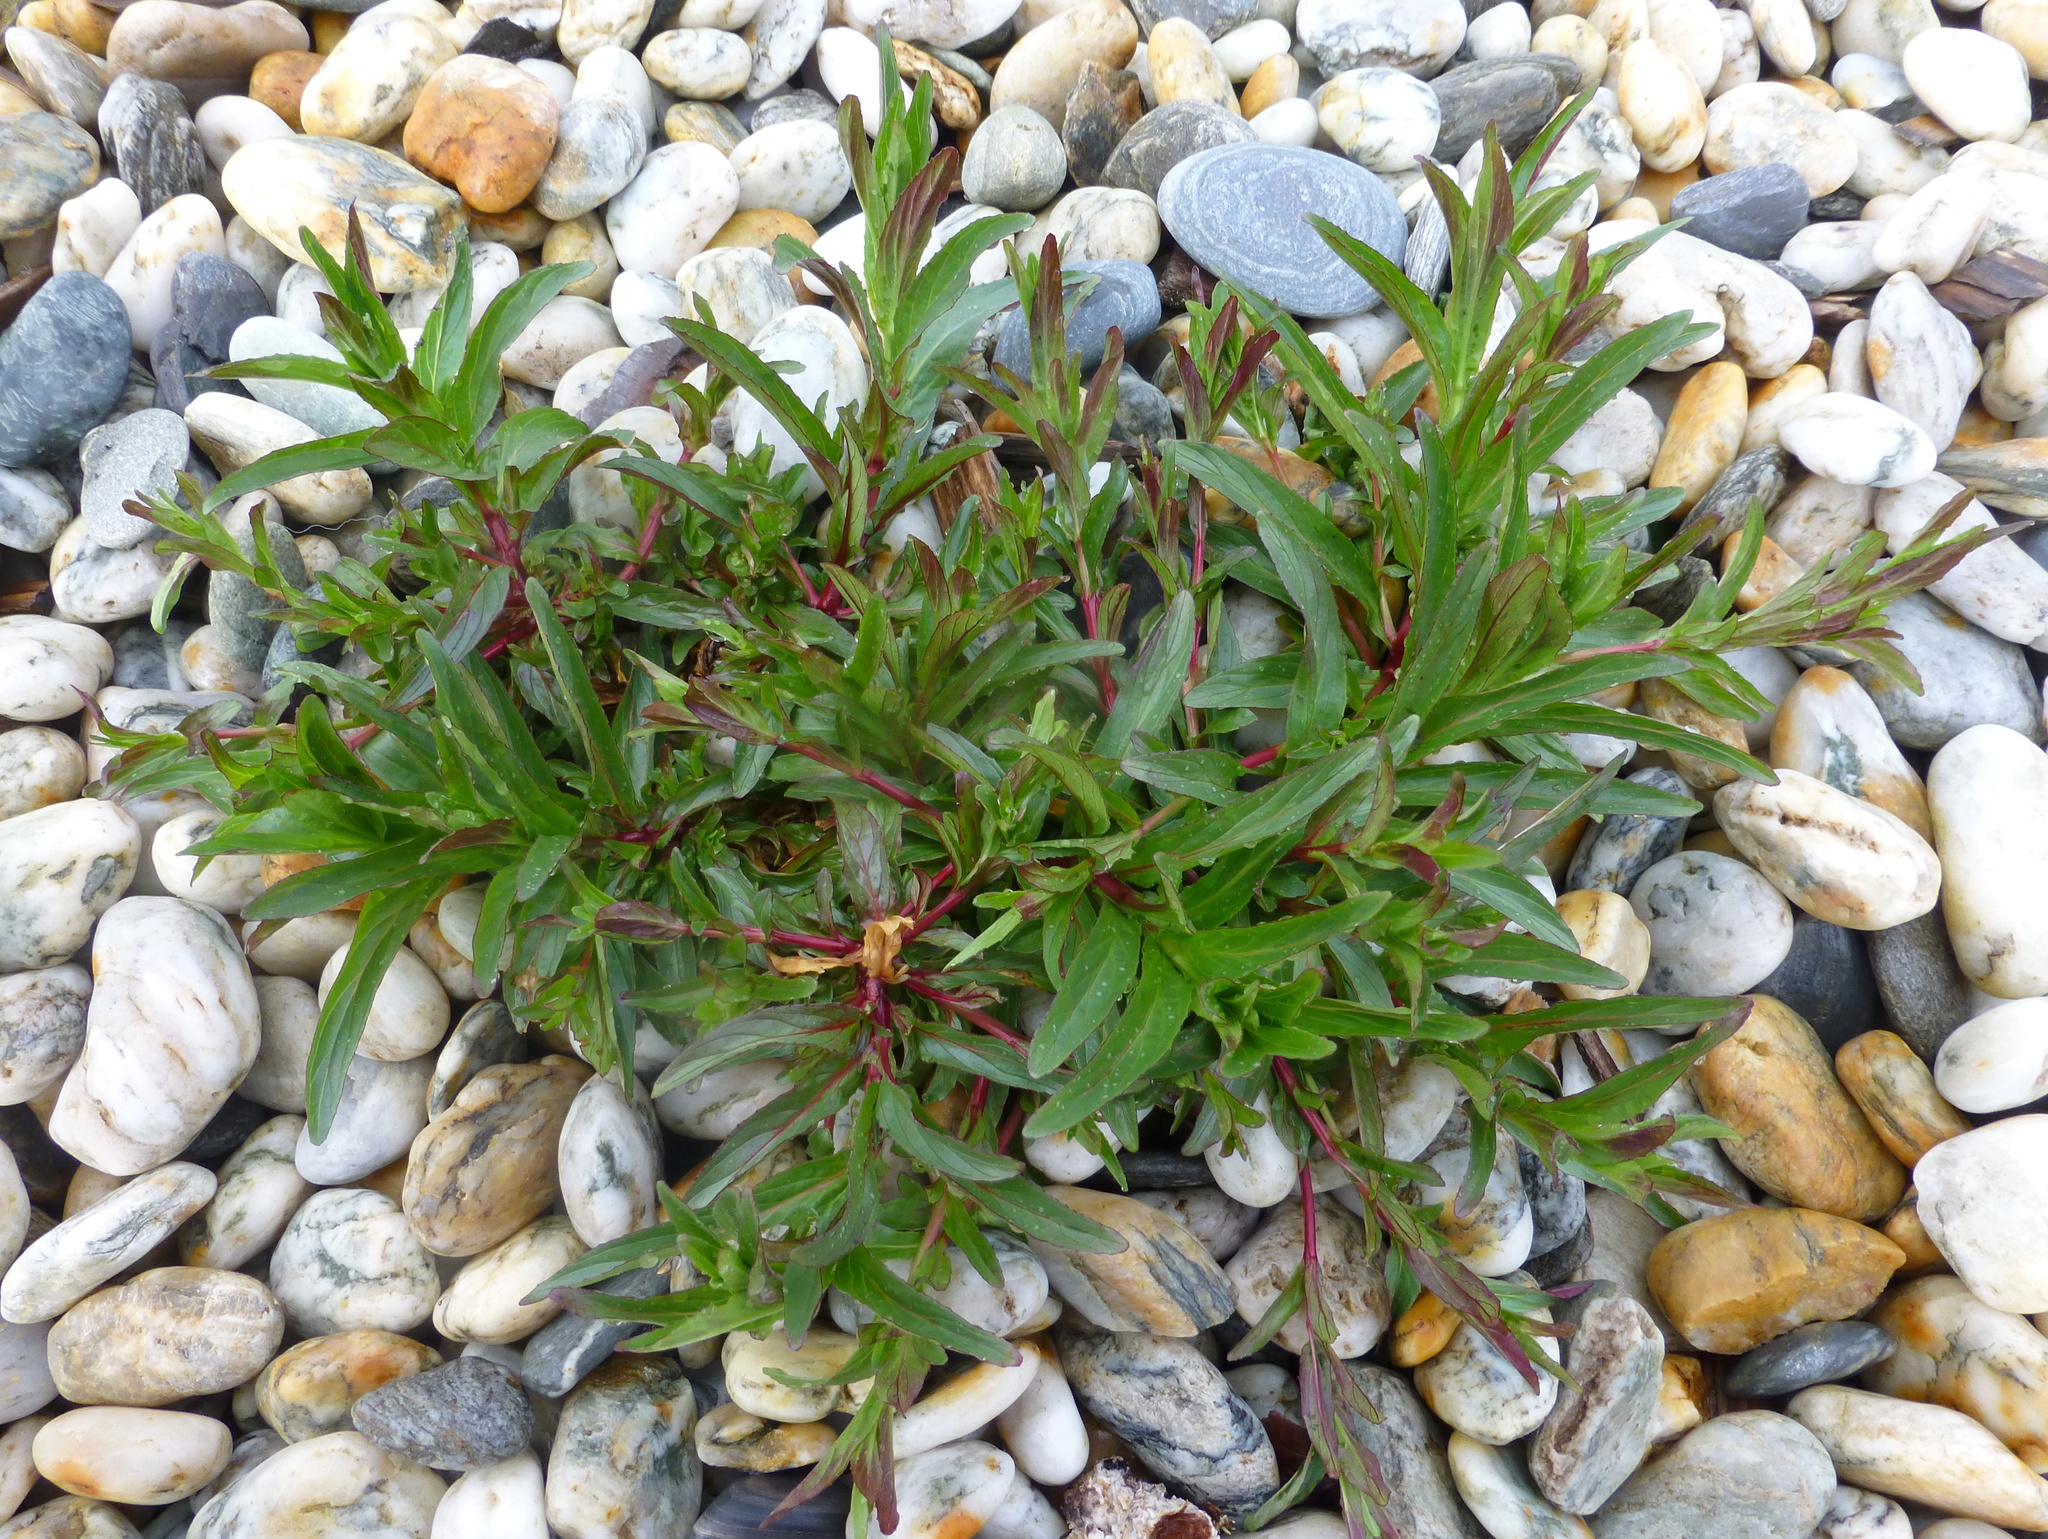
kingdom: Plantae
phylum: Tracheophyta
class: Magnoliopsida
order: Myrtales
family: Onagraceae
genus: Epilobium
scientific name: Epilobium ciliatum
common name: American willowherb
